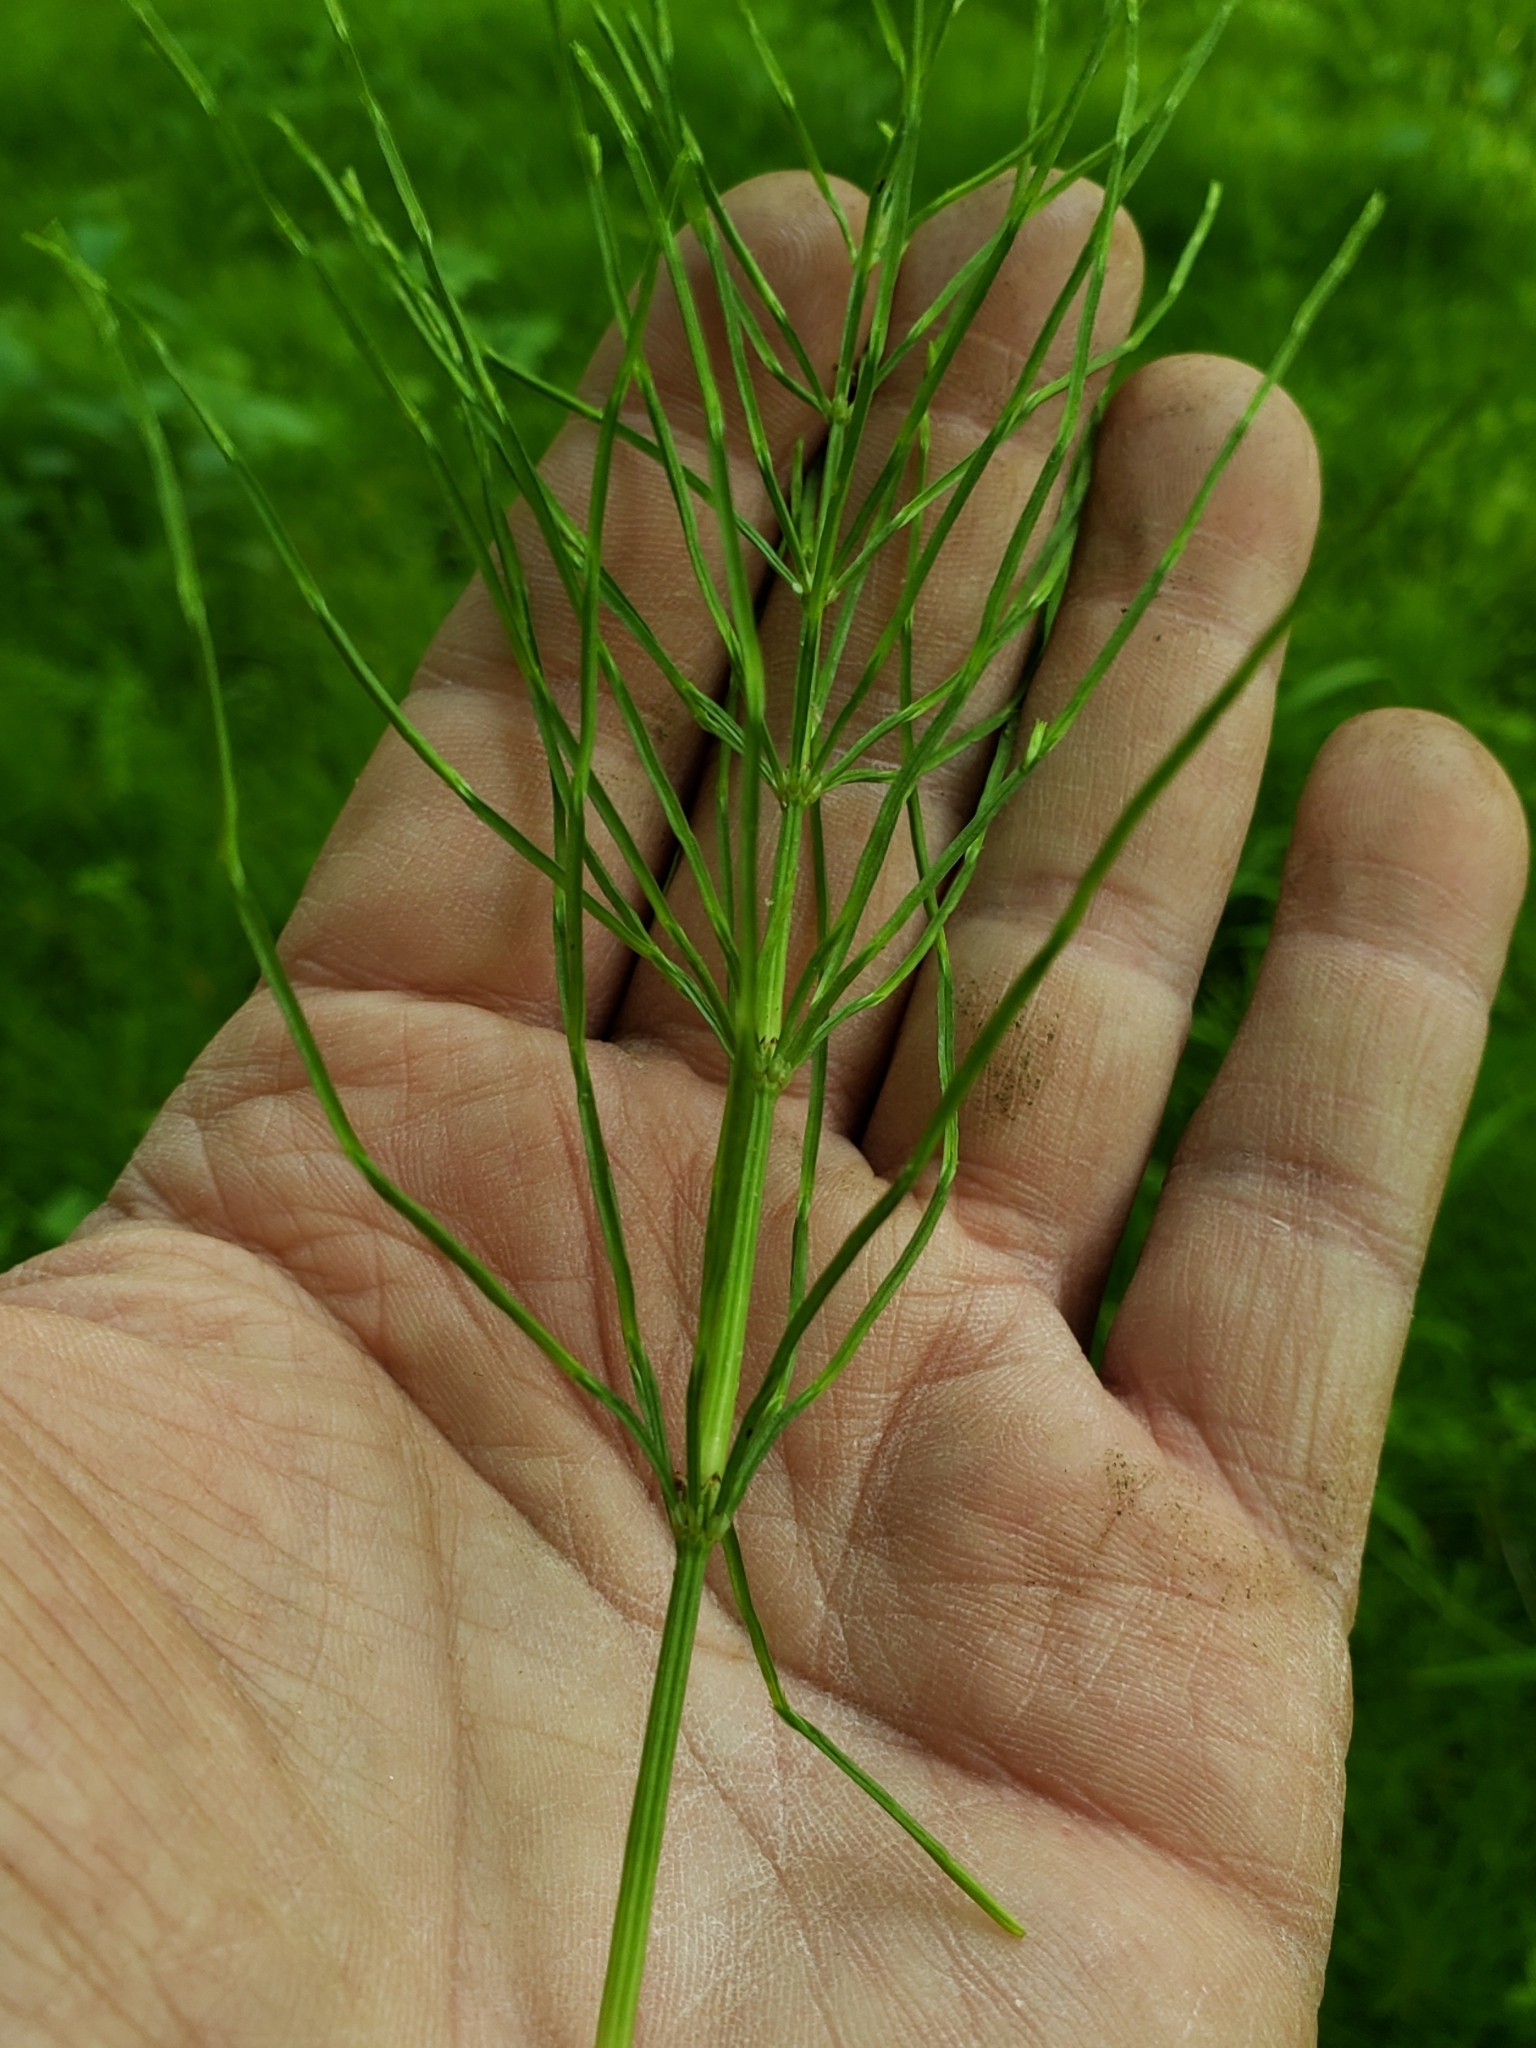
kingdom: Plantae
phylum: Tracheophyta
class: Polypodiopsida
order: Equisetales
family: Equisetaceae
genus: Equisetum
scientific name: Equisetum arvense
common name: Field horsetail
